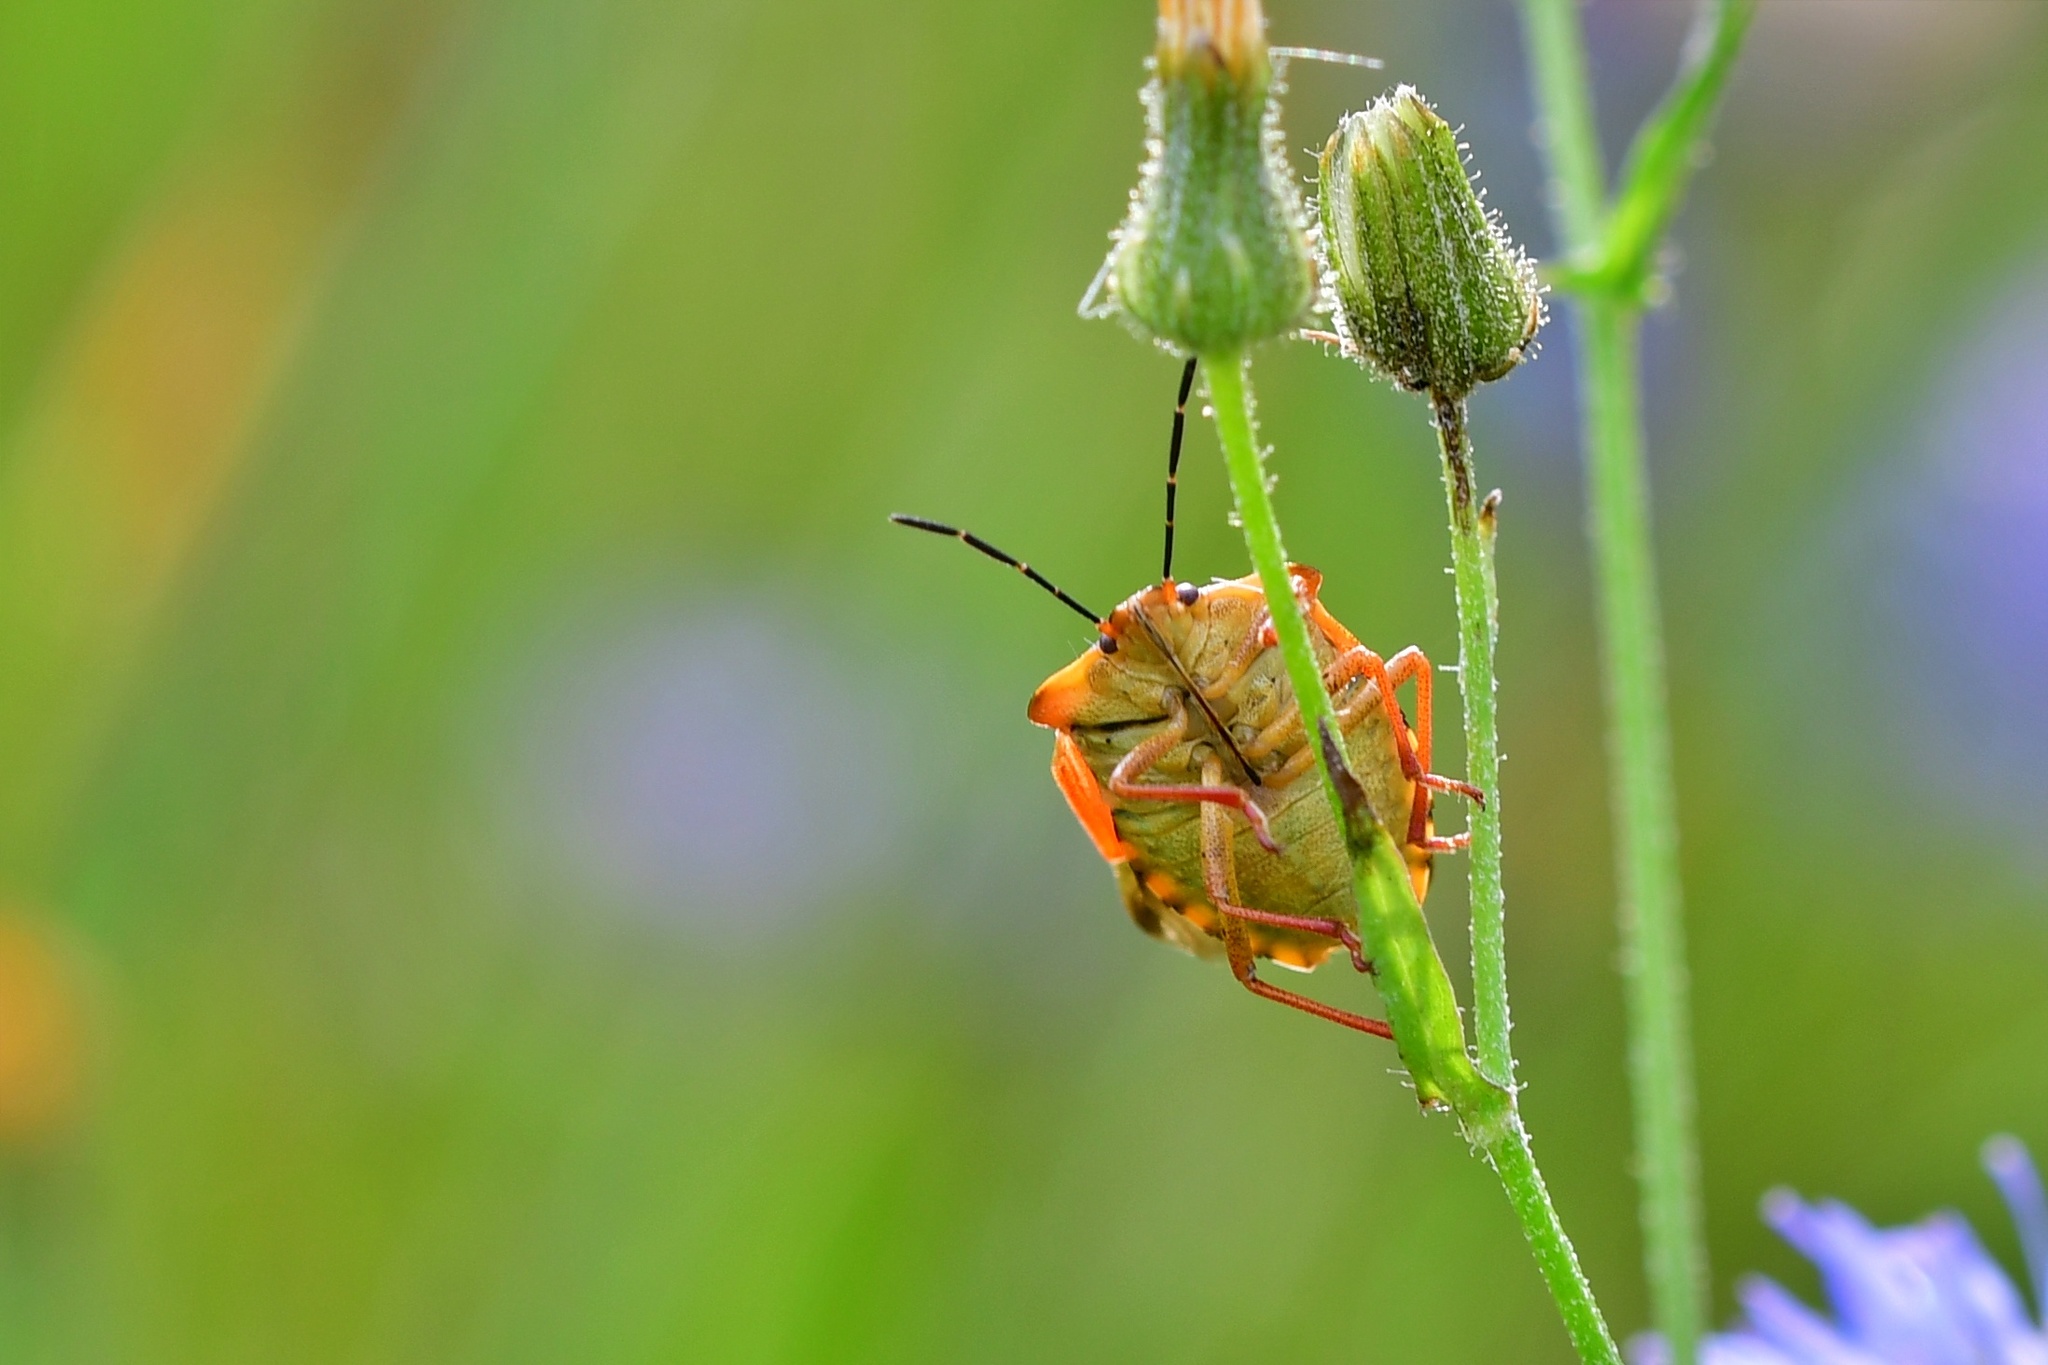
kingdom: Animalia
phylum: Arthropoda
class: Insecta
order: Hemiptera
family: Pentatomidae
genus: Carpocoris
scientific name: Carpocoris fuscispinus
